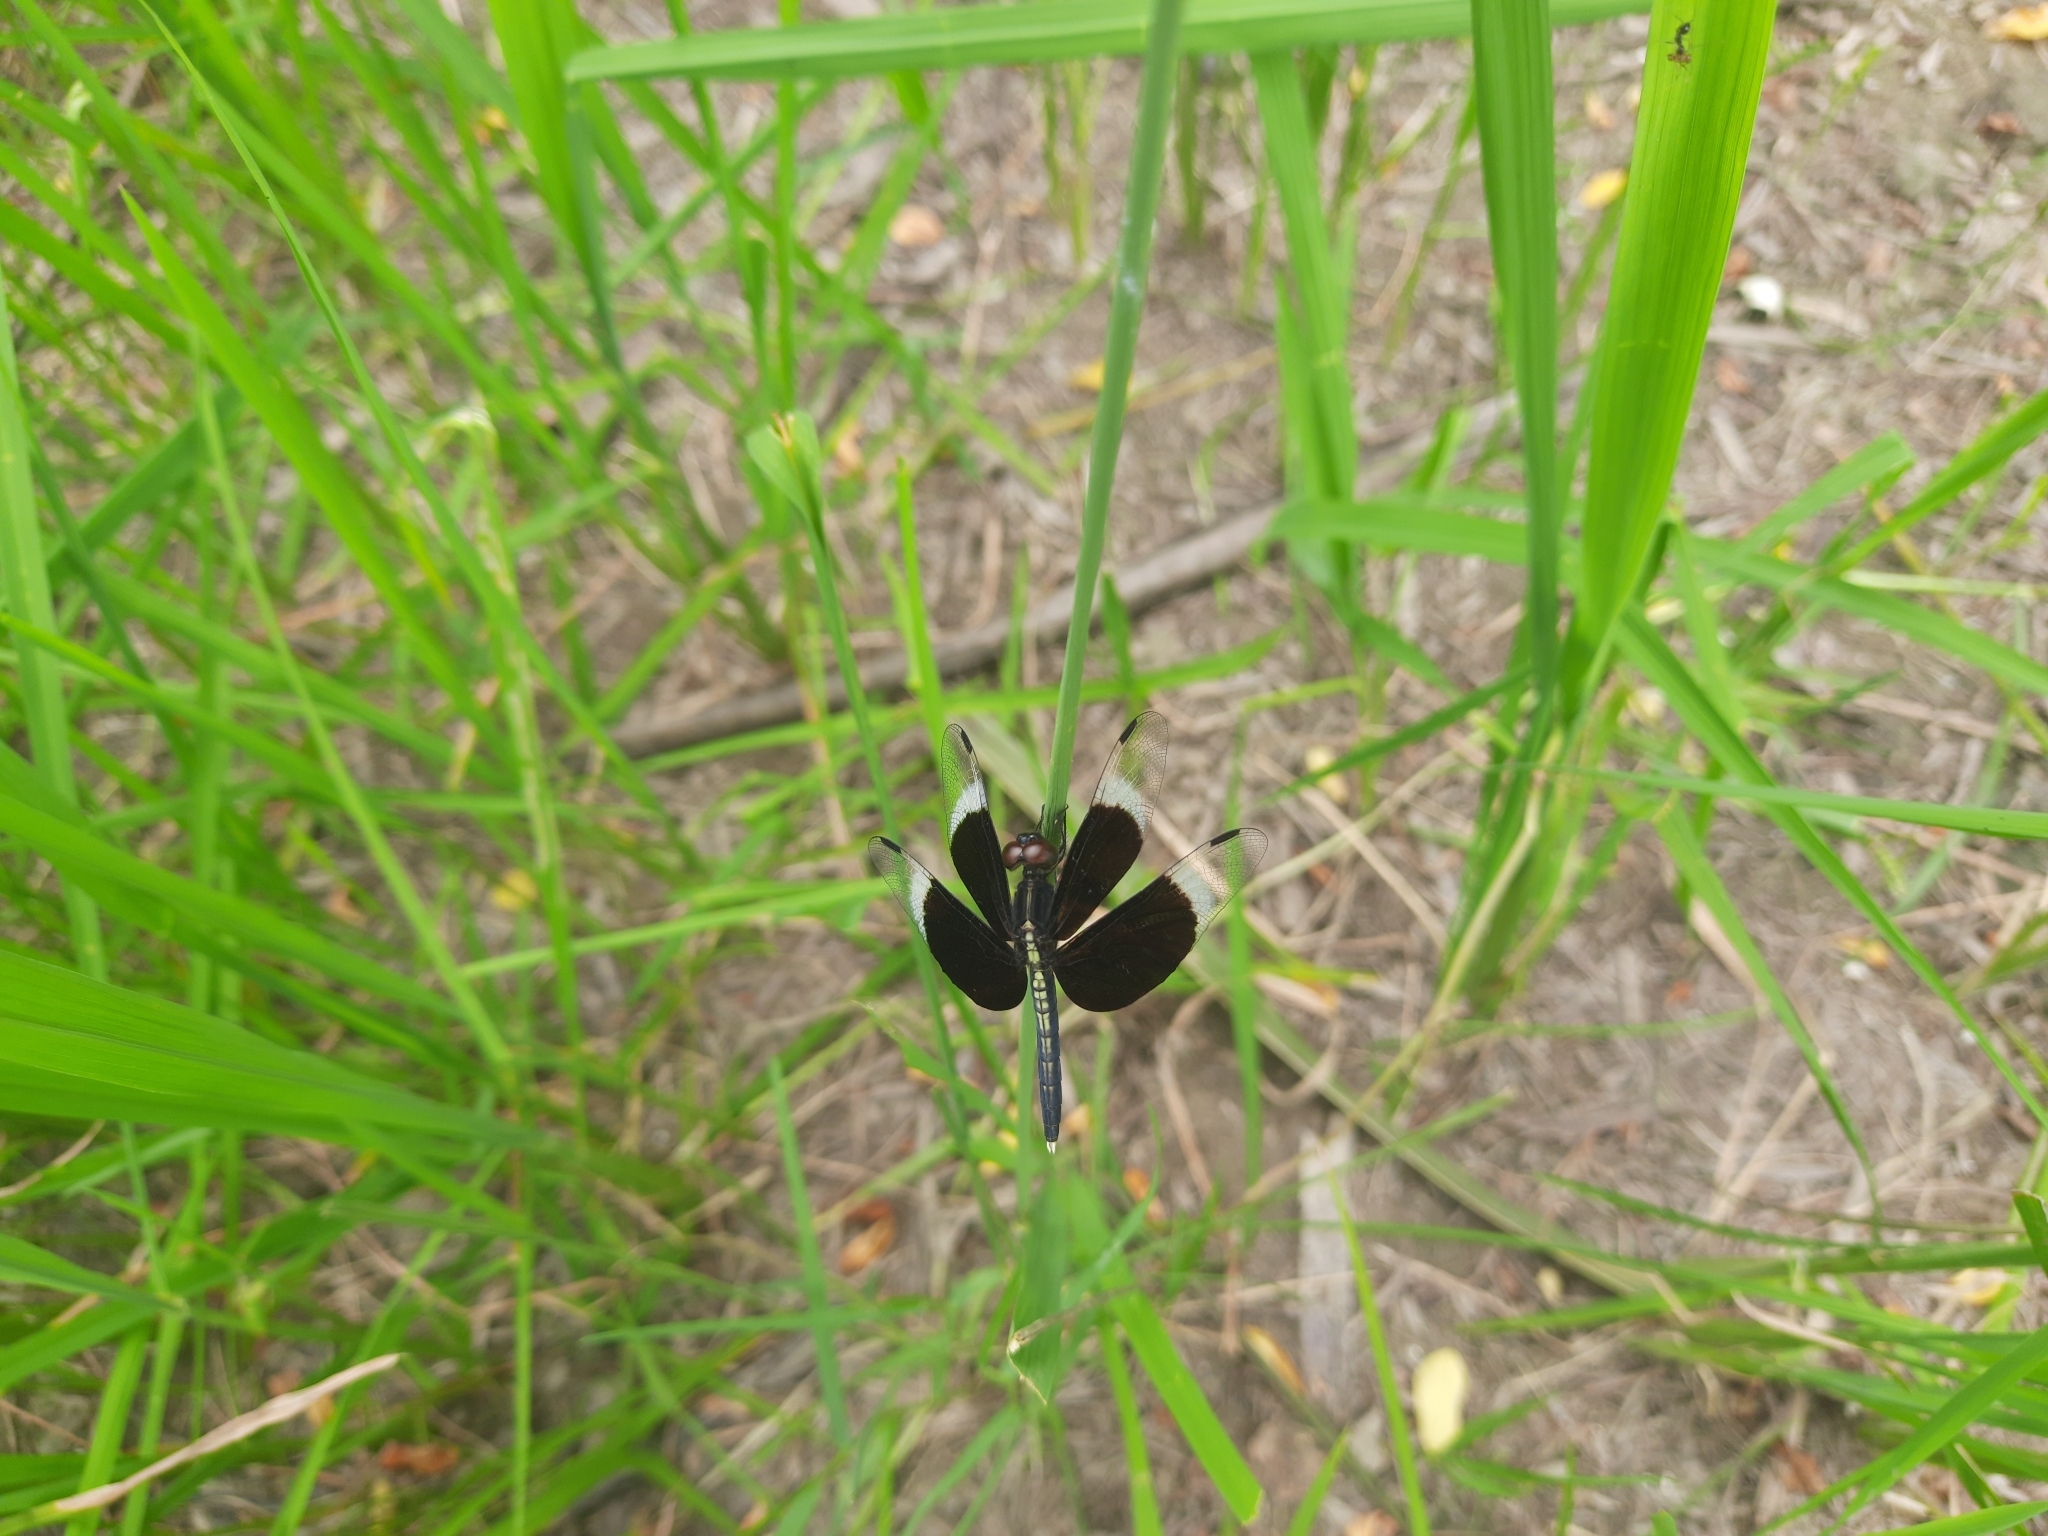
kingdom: Animalia
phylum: Arthropoda
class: Insecta
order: Odonata
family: Libellulidae
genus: Neurothemis
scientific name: Neurothemis tullia
